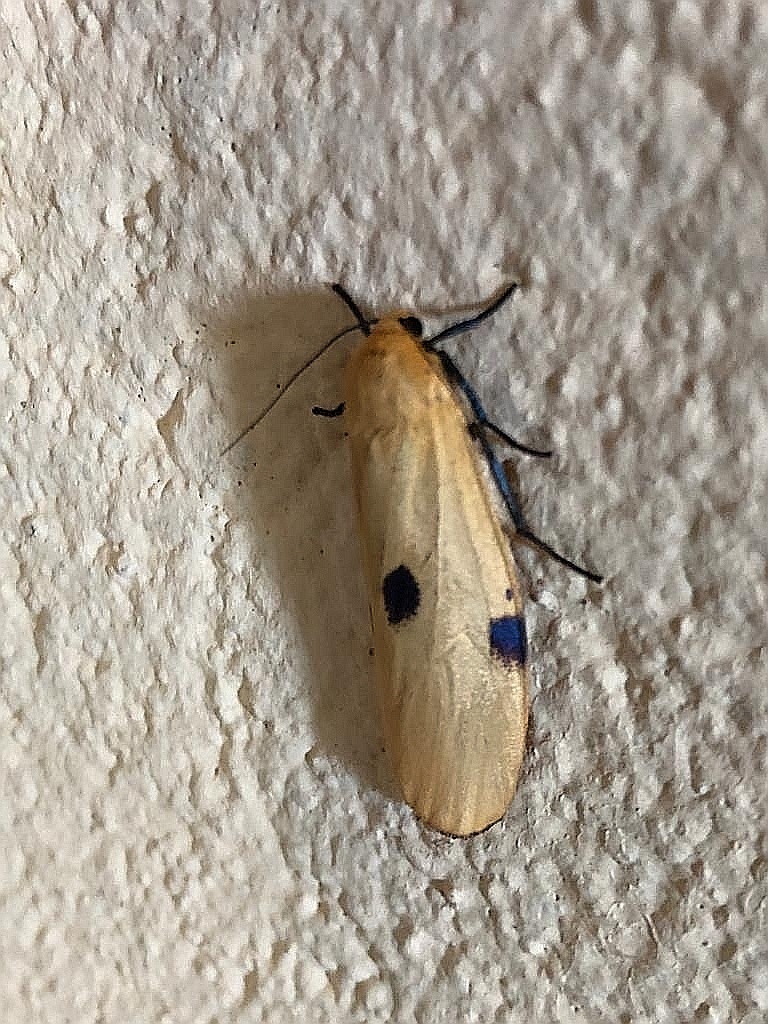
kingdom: Animalia
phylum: Arthropoda
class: Insecta
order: Lepidoptera
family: Erebidae
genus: Lithosia
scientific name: Lithosia quadra
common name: Four-spotted footman
